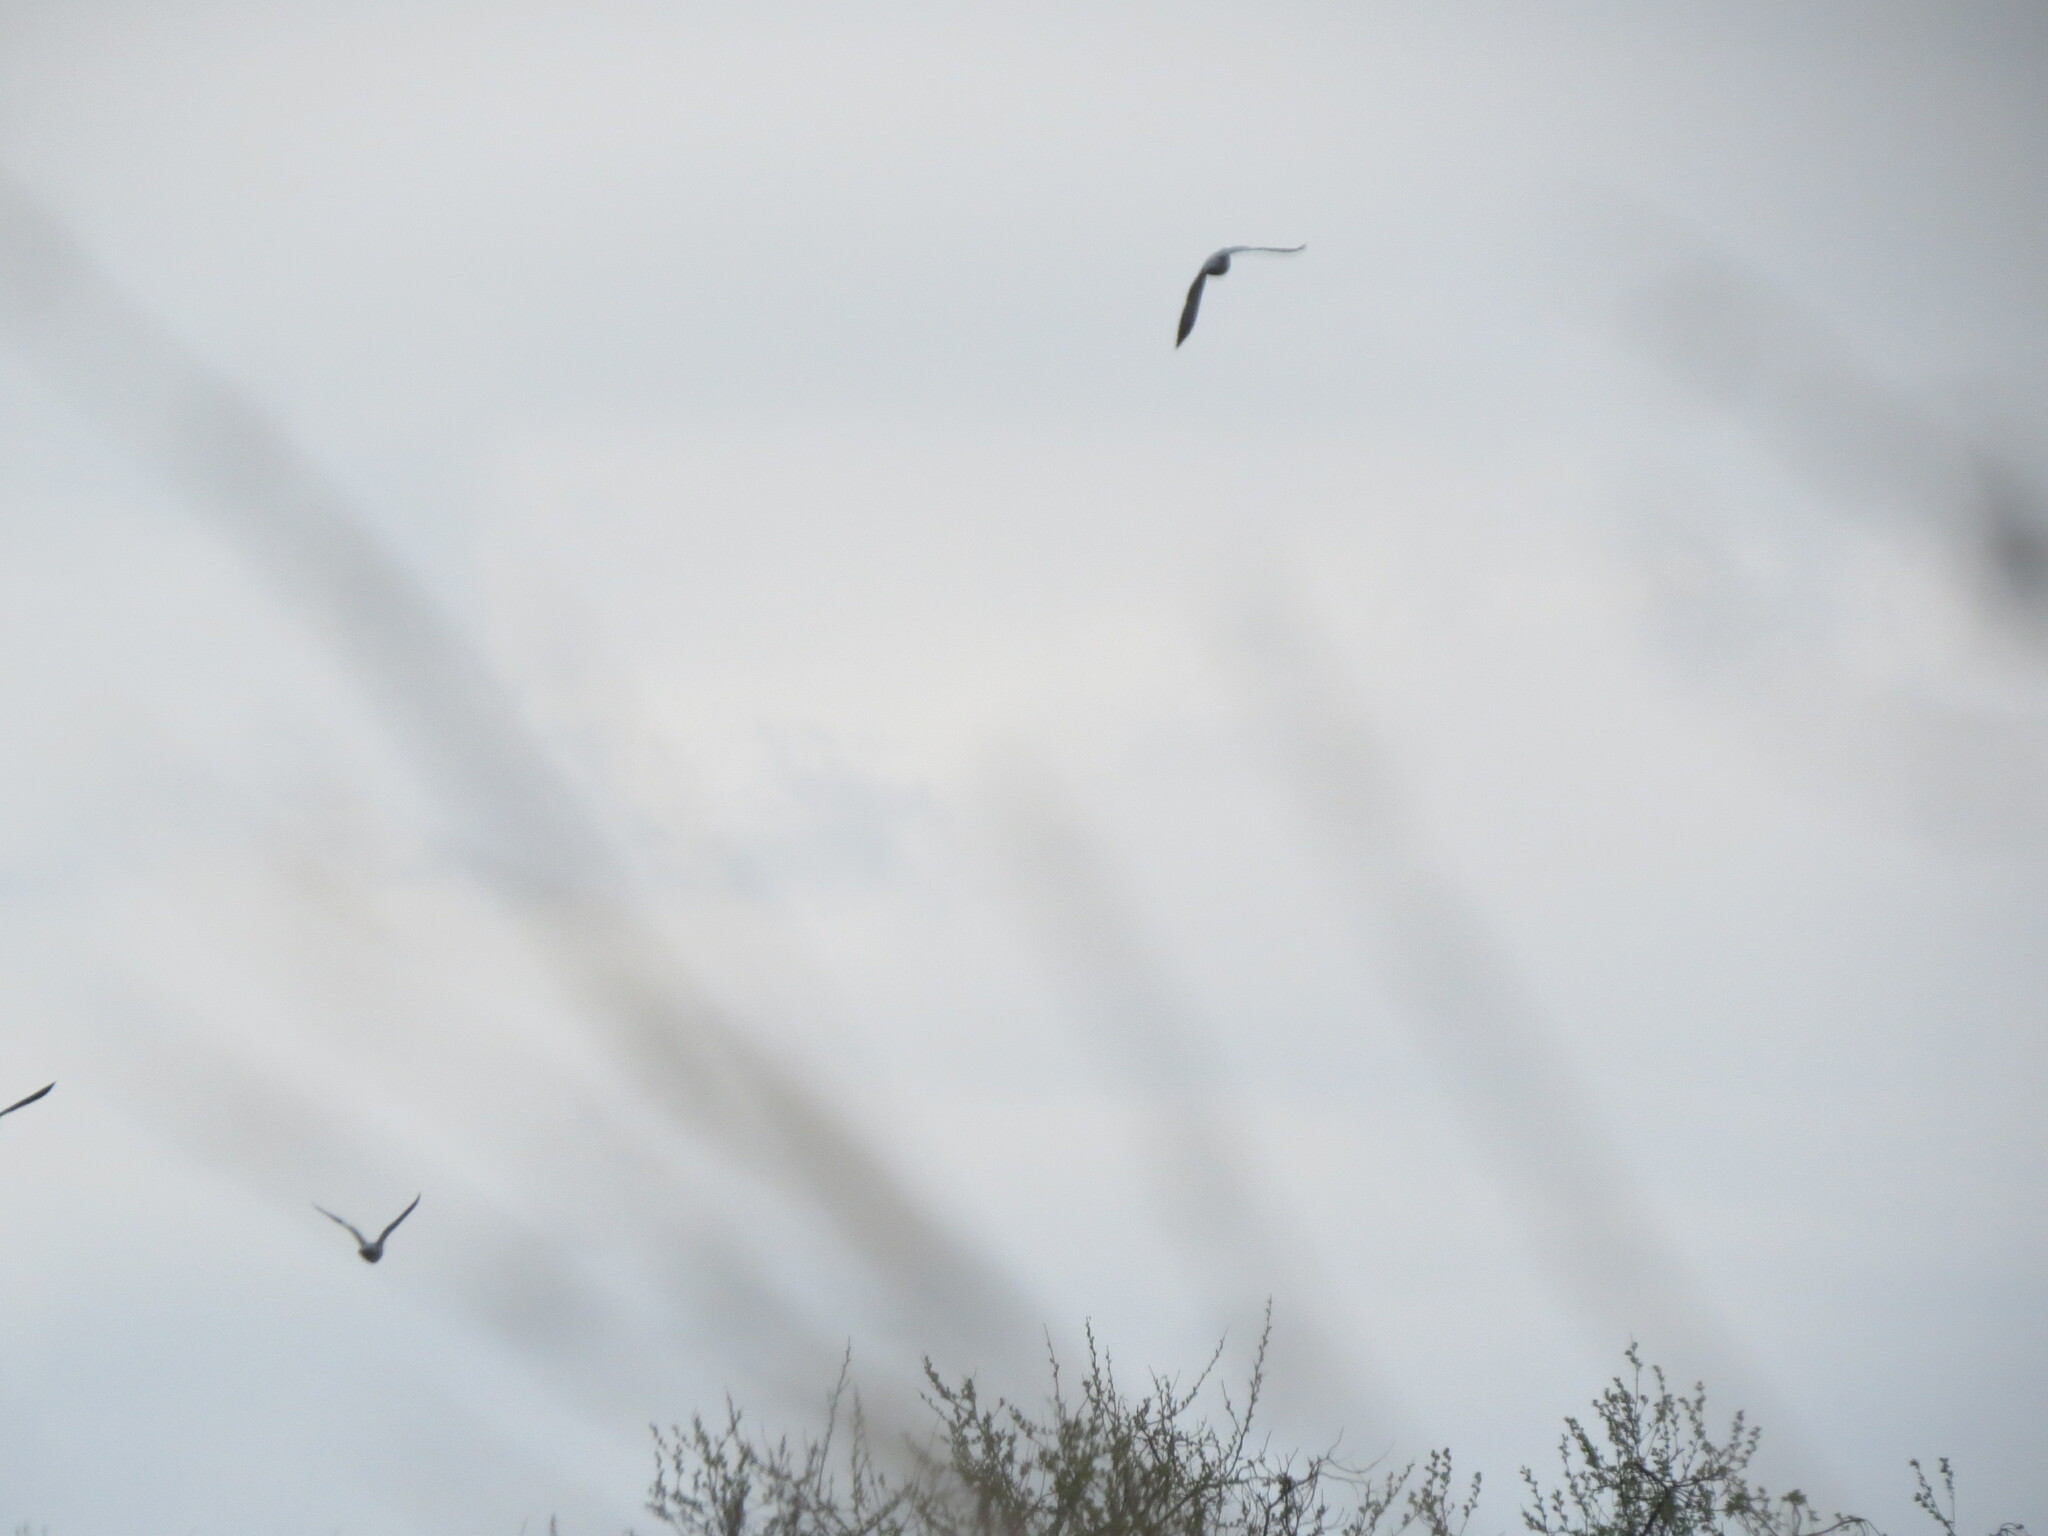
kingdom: Animalia
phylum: Chordata
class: Aves
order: Columbiformes
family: Columbidae
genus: Columba
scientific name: Columba palumbus
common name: Common wood pigeon
